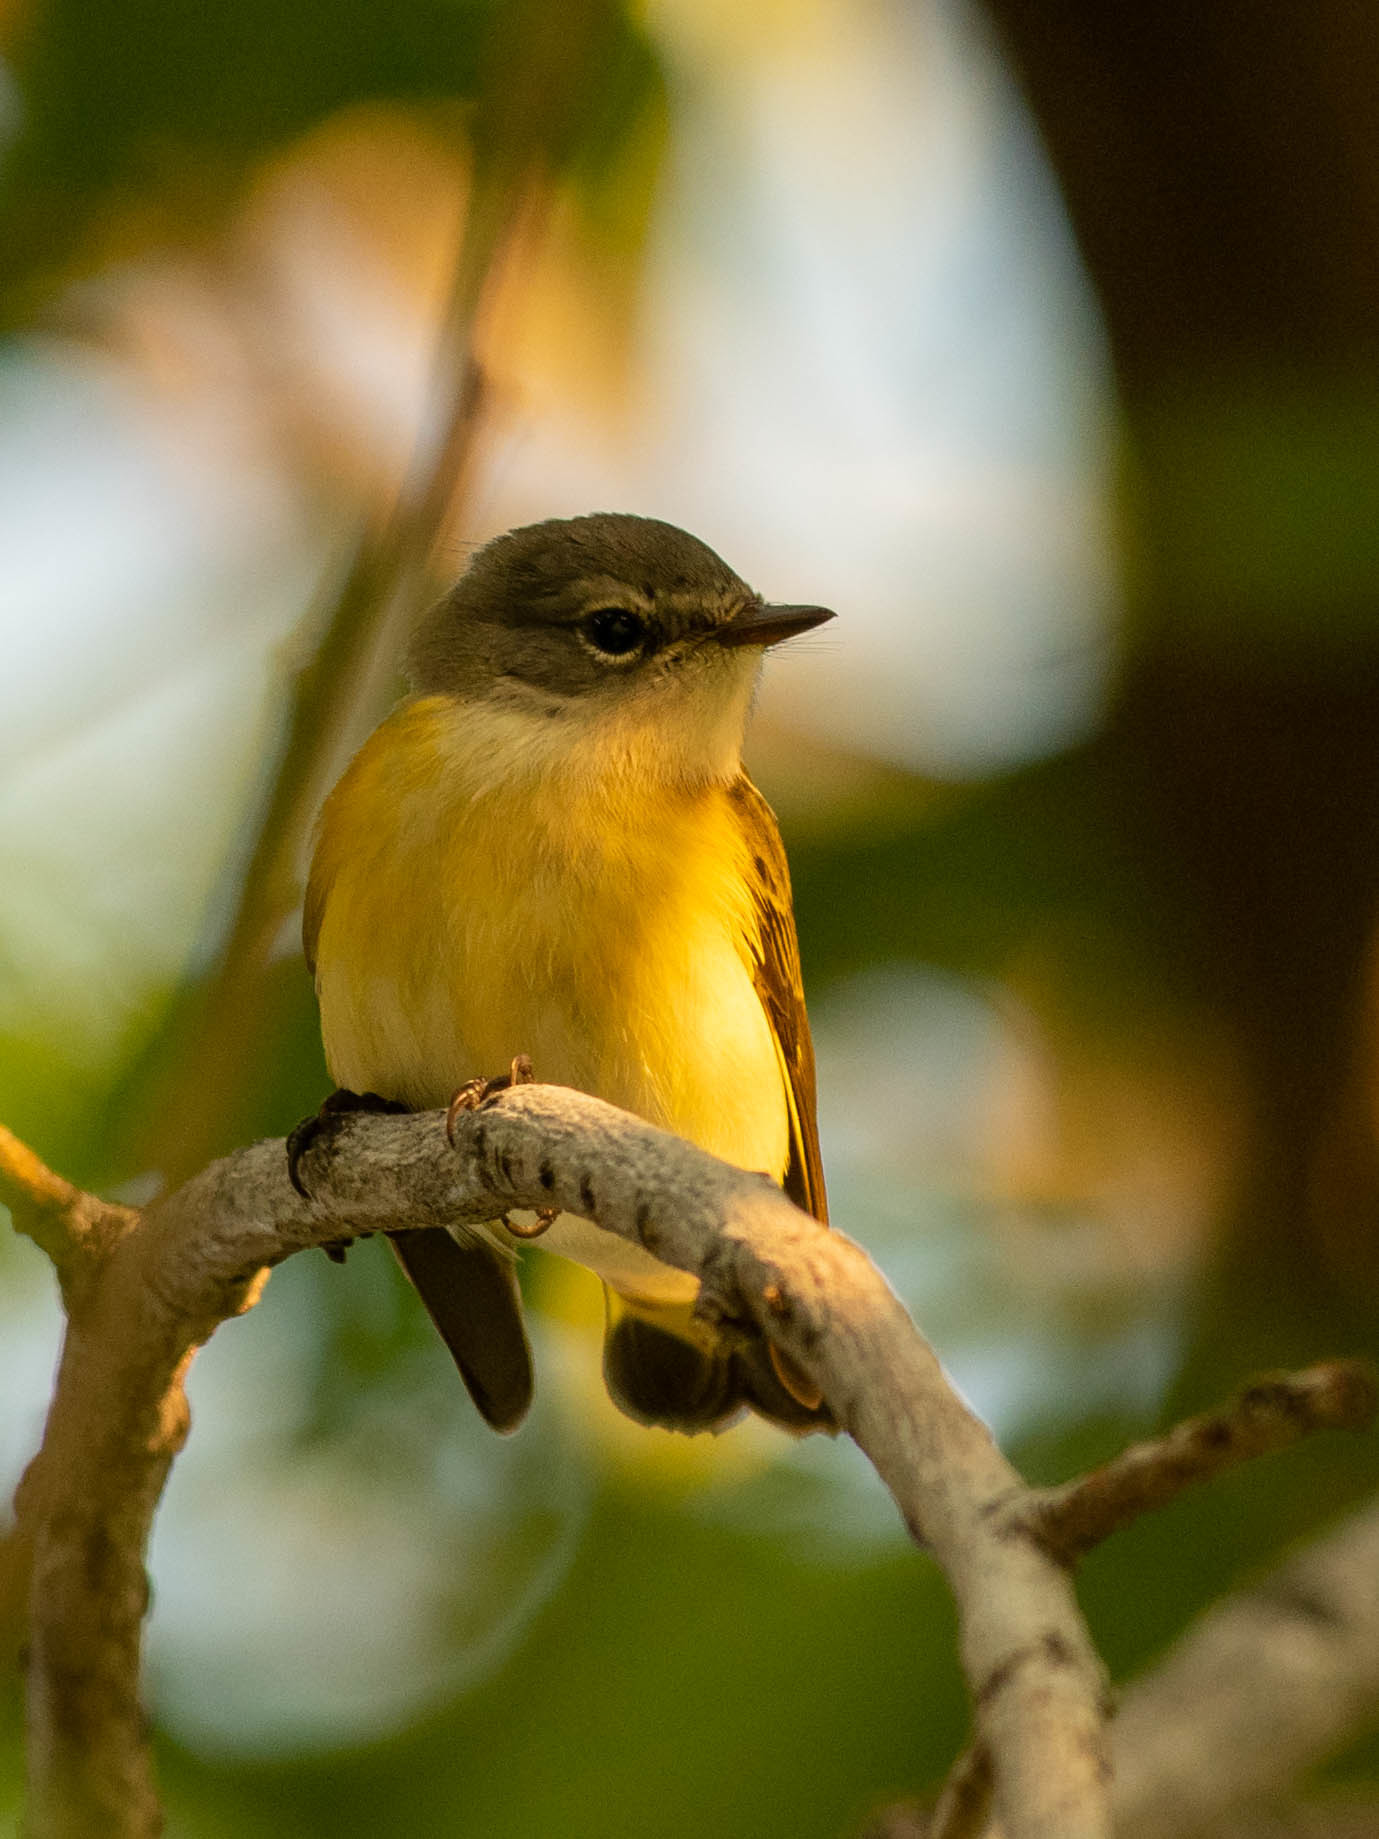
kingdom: Animalia
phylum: Chordata
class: Aves
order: Passeriformes
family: Parulidae
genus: Setophaga
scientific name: Setophaga ruticilla
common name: American redstart
